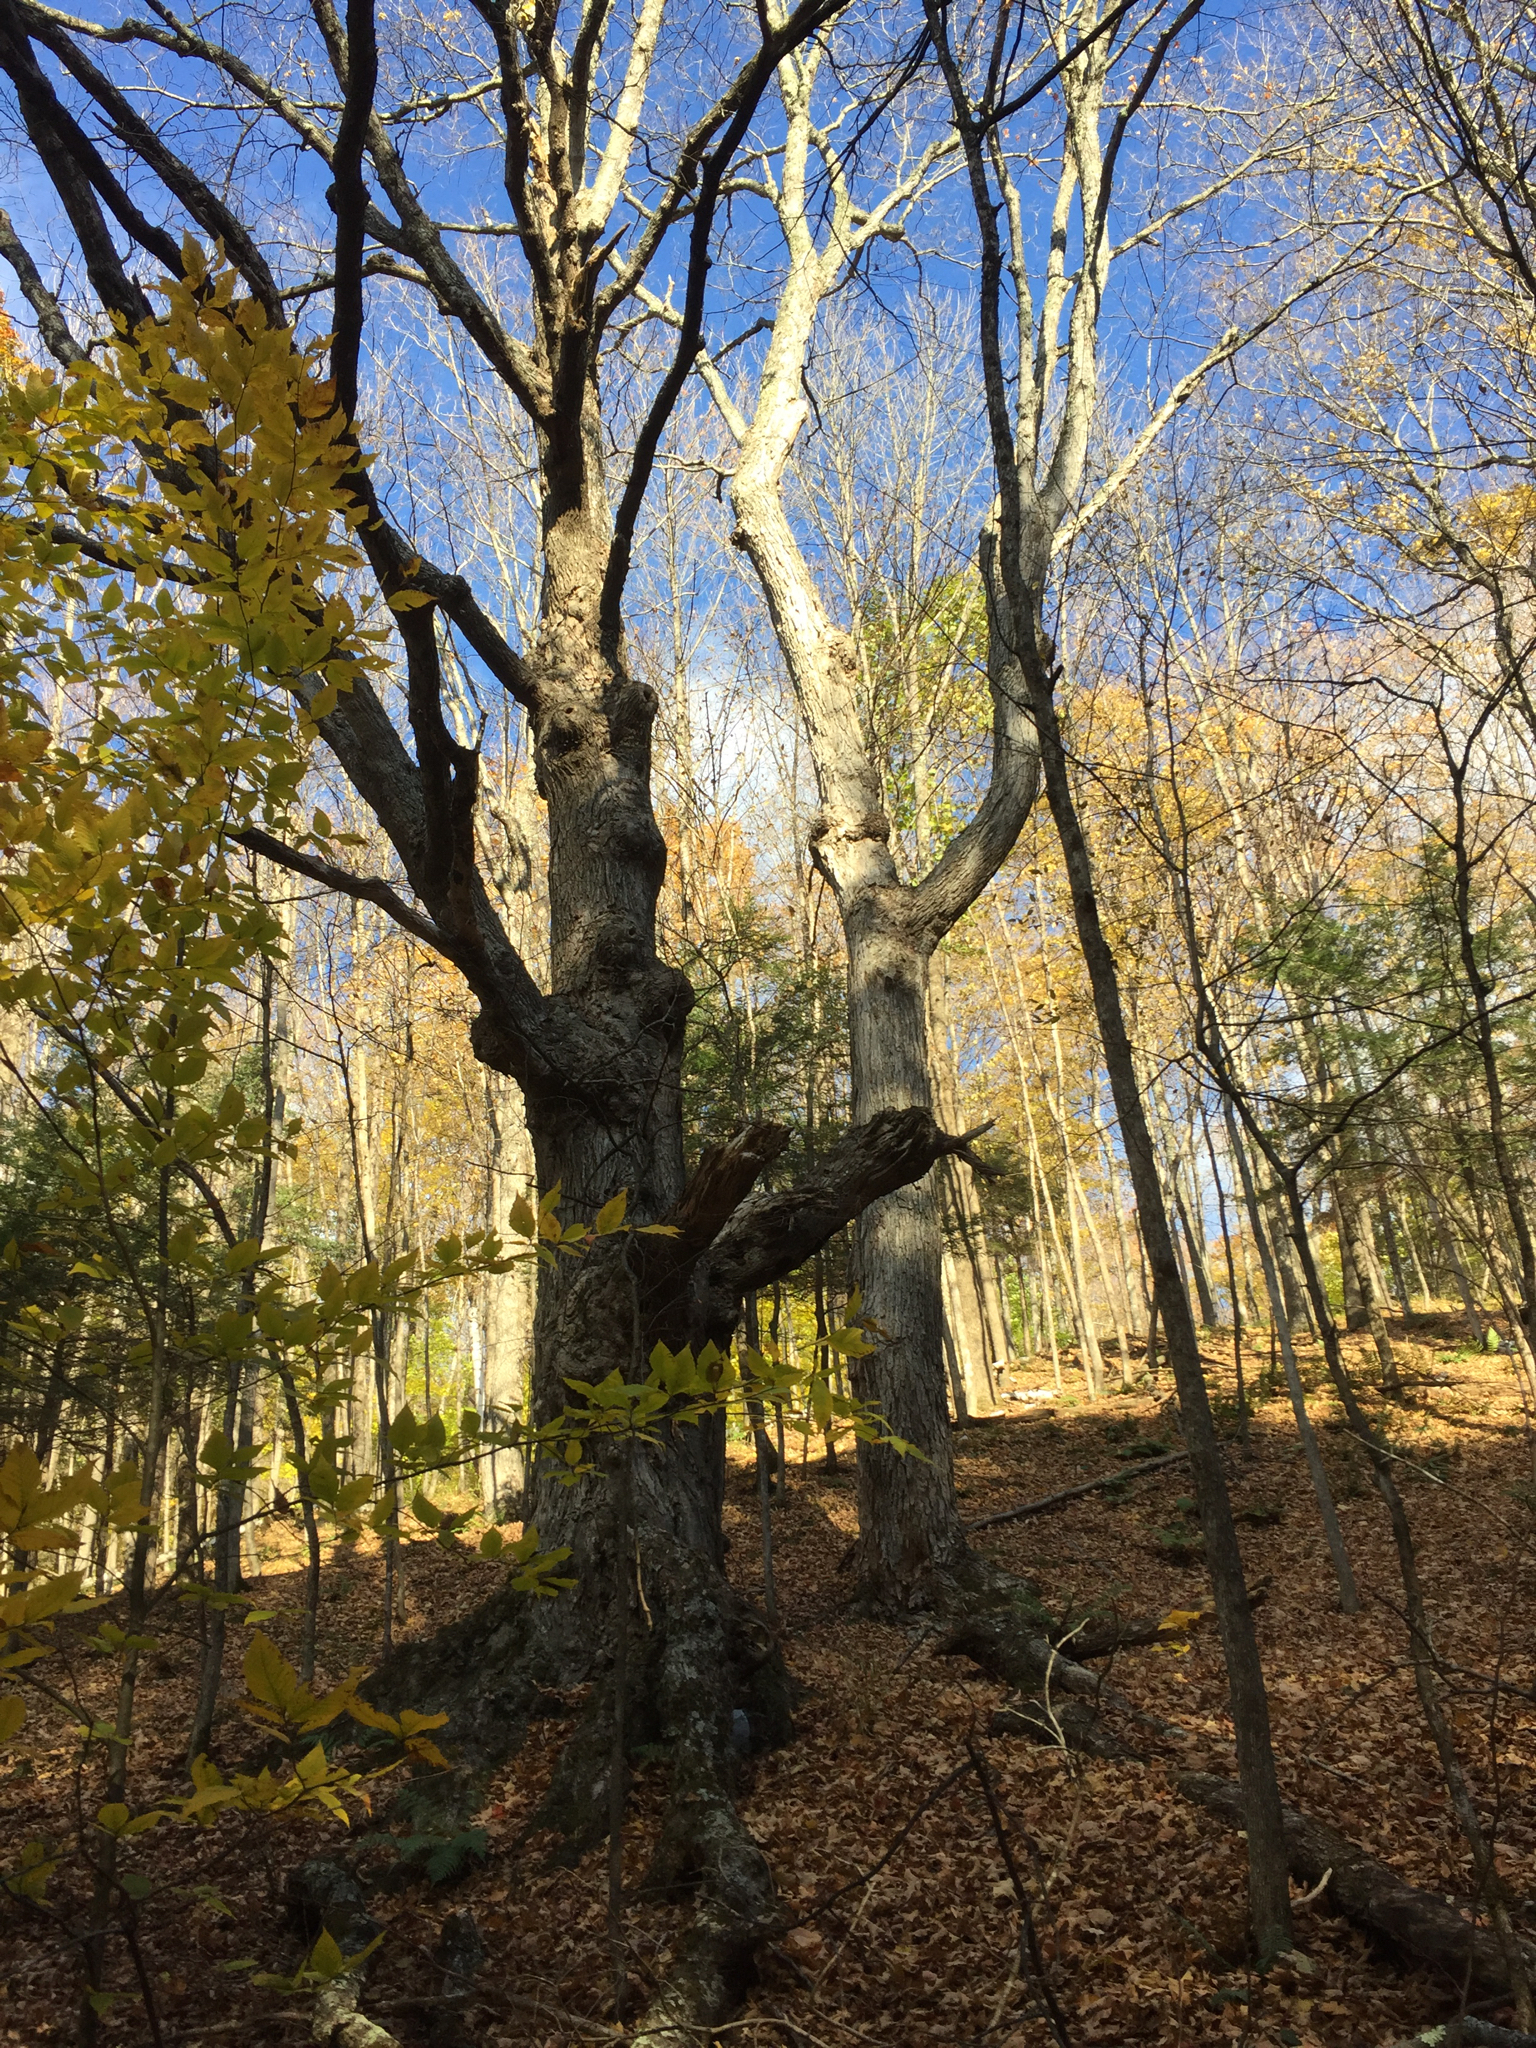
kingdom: Plantae
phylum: Tracheophyta
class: Magnoliopsida
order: Sapindales
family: Sapindaceae
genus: Acer
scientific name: Acer saccharum
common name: Sugar maple
